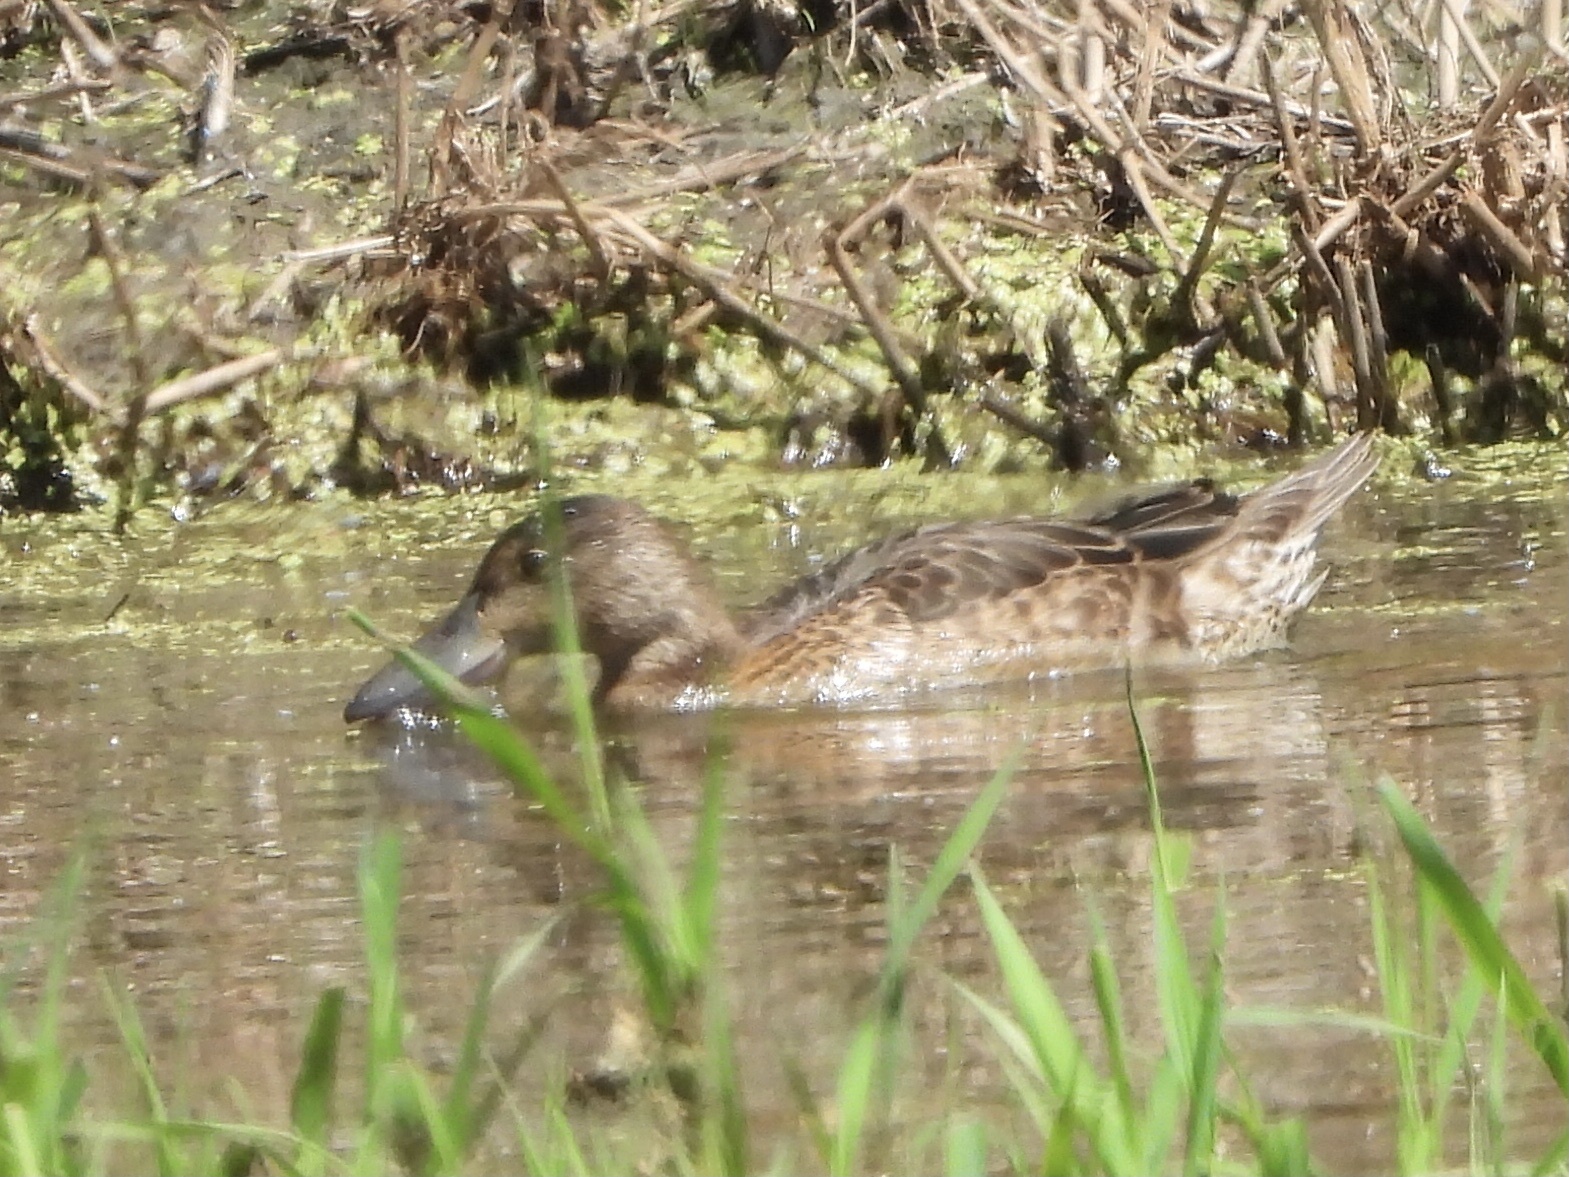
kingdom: Animalia
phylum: Chordata
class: Aves
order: Anseriformes
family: Anatidae
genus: Spatula
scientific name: Spatula cyanoptera
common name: Cinnamon teal
